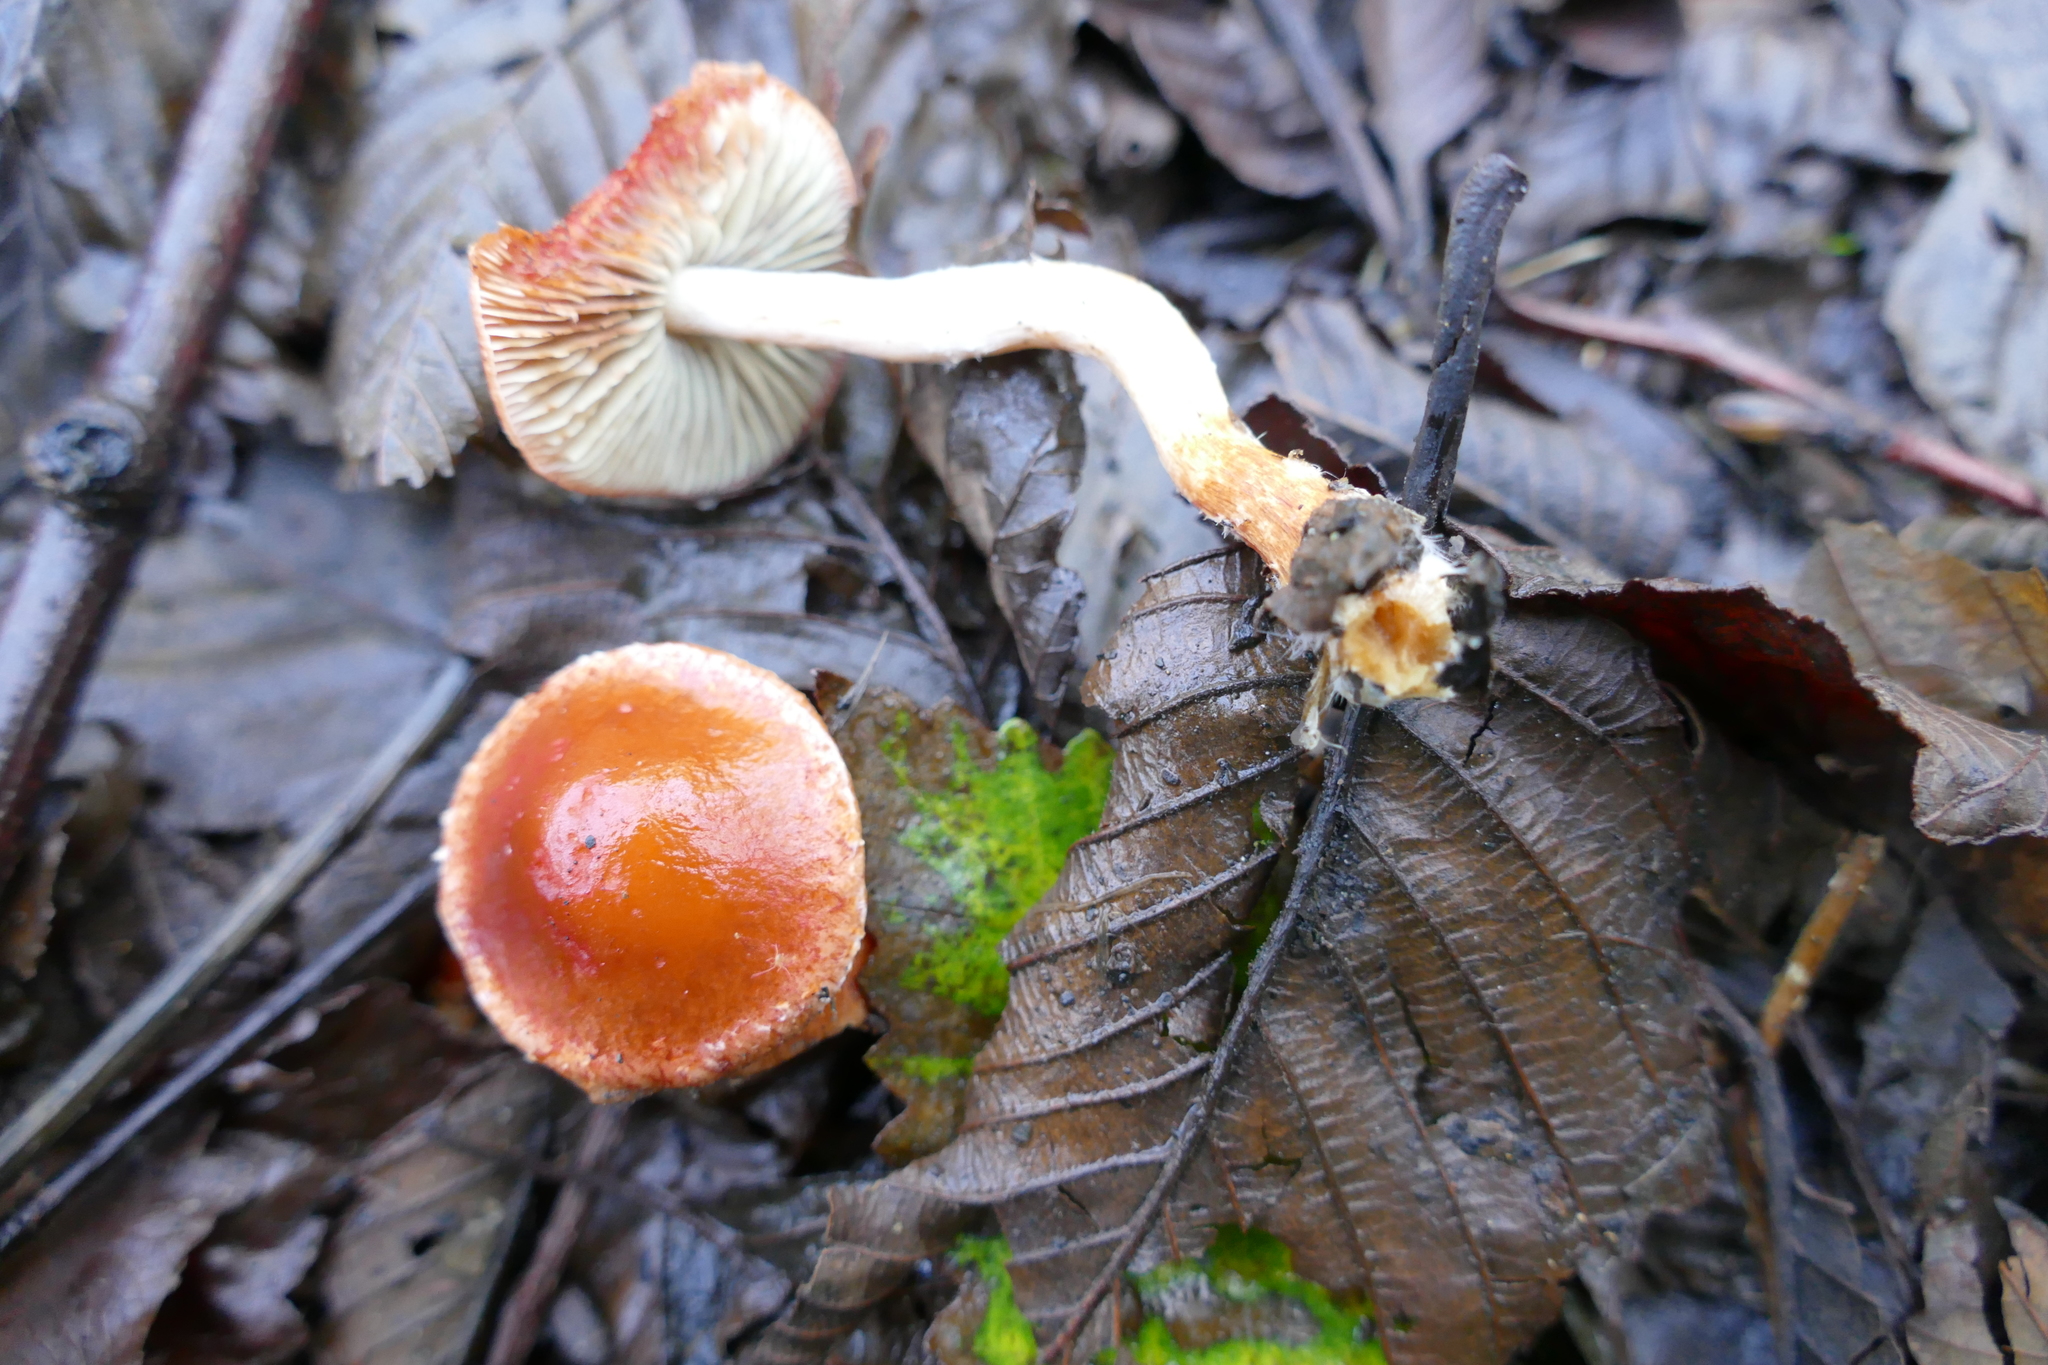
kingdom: Fungi
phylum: Basidiomycota
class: Agaricomycetes
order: Agaricales
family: Strophariaceae
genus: Leratiomyces
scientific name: Leratiomyces ceres
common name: Redlead roundhead
